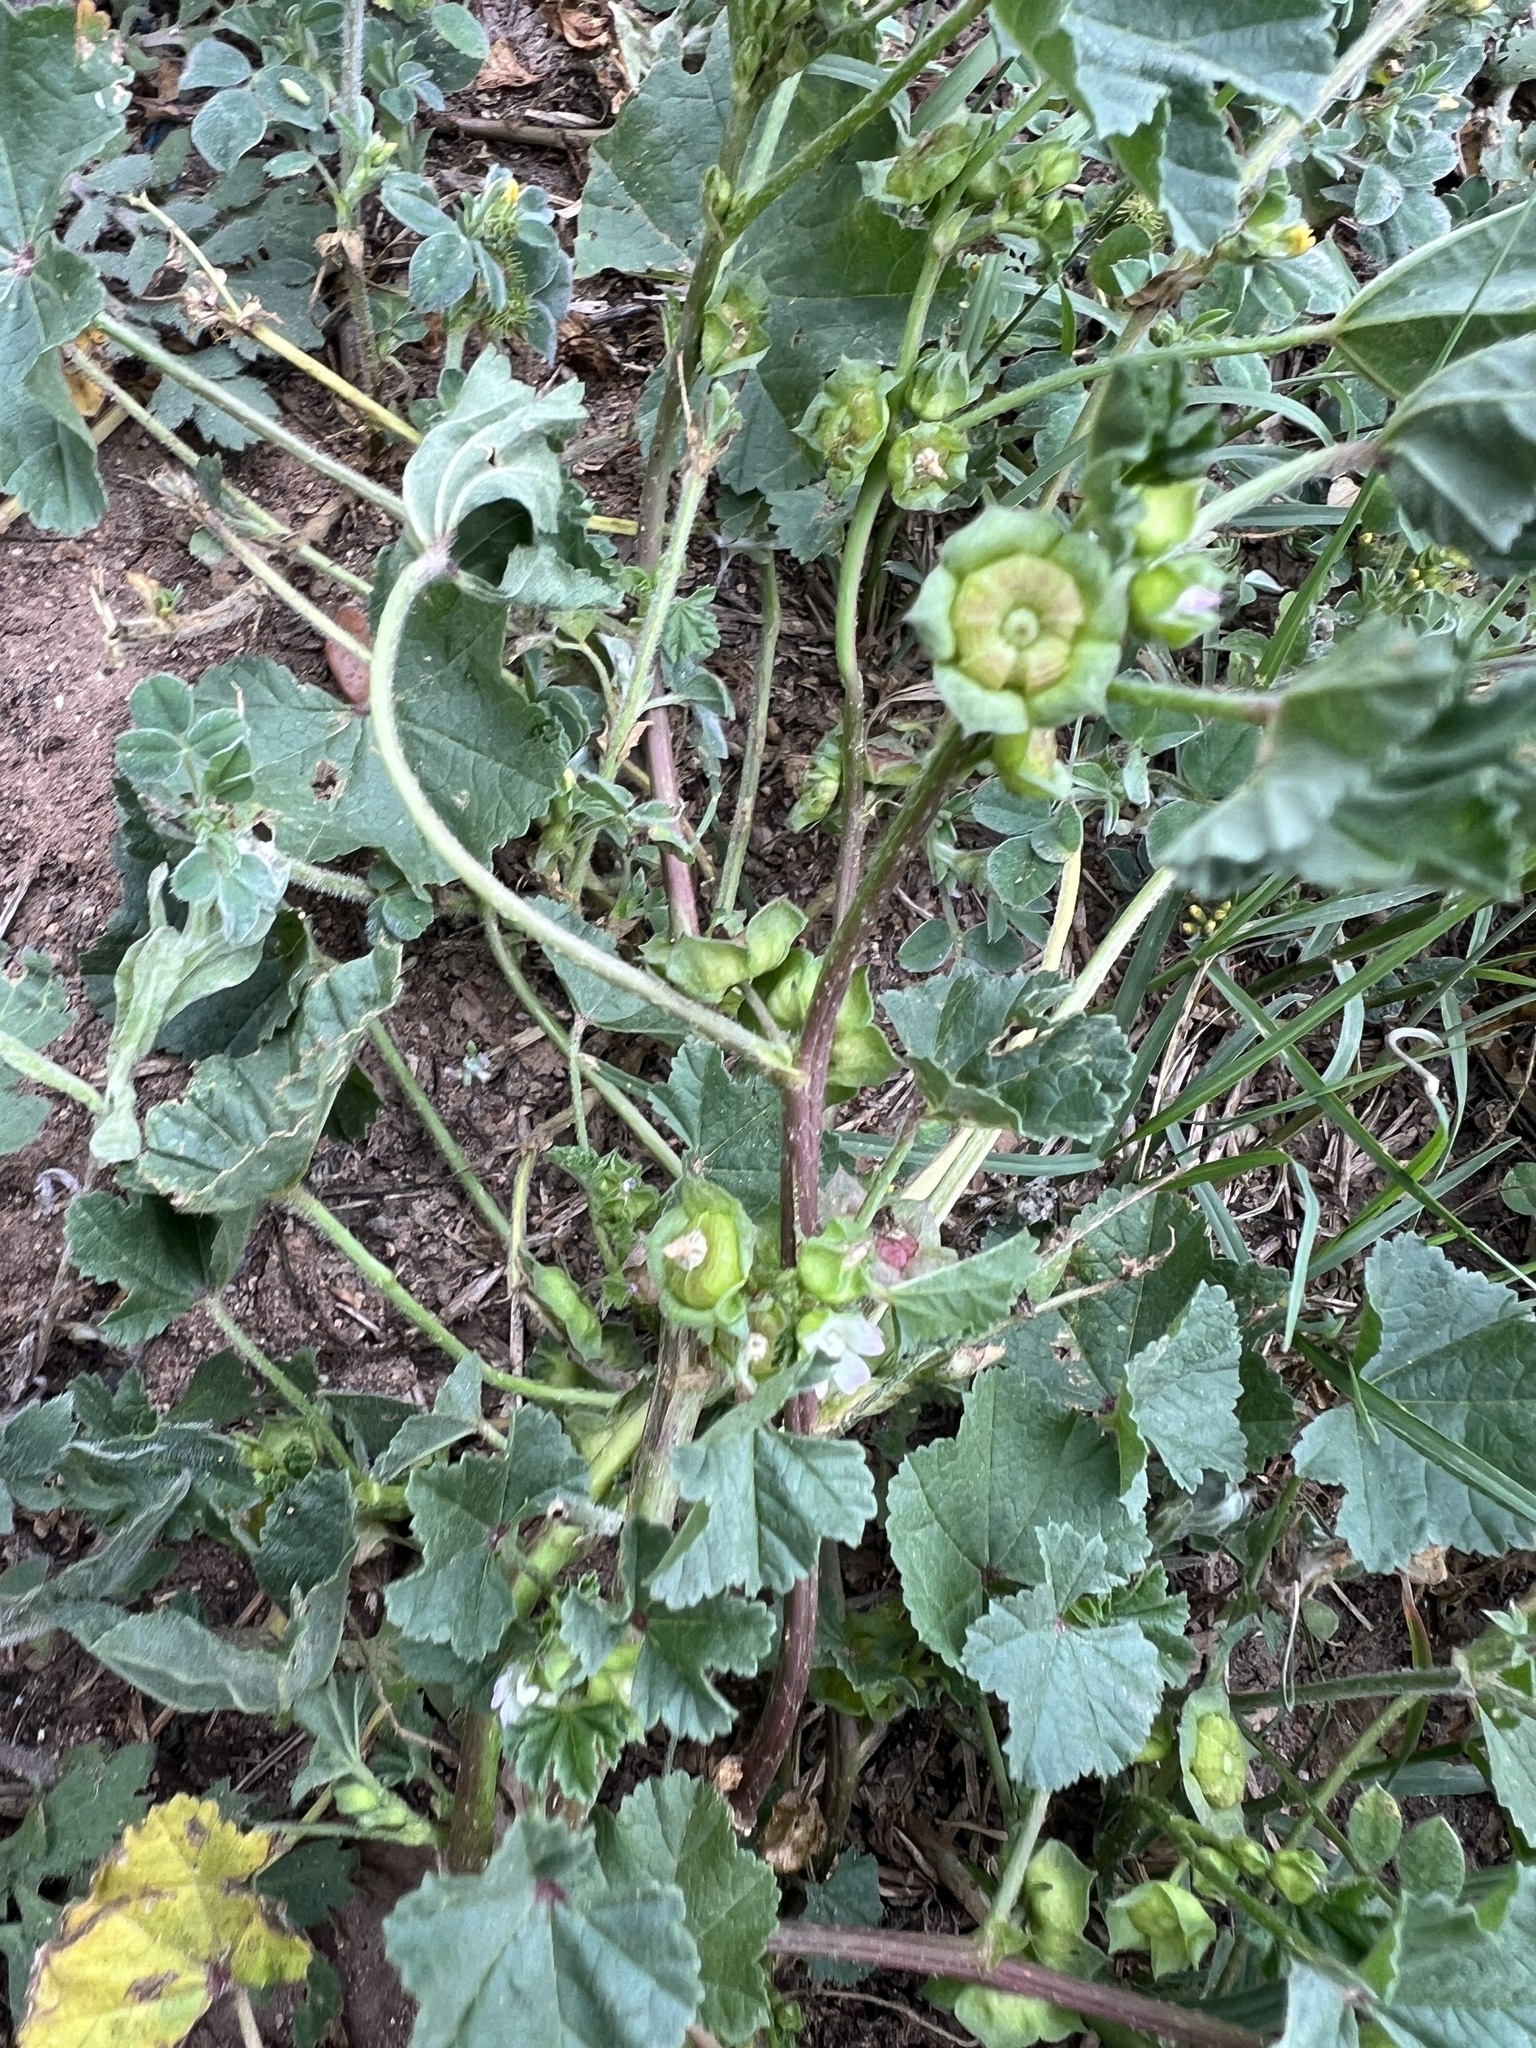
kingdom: Plantae
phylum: Tracheophyta
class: Magnoliopsida
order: Malvales
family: Malvaceae
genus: Malva
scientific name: Malva parviflora
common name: Least mallow
